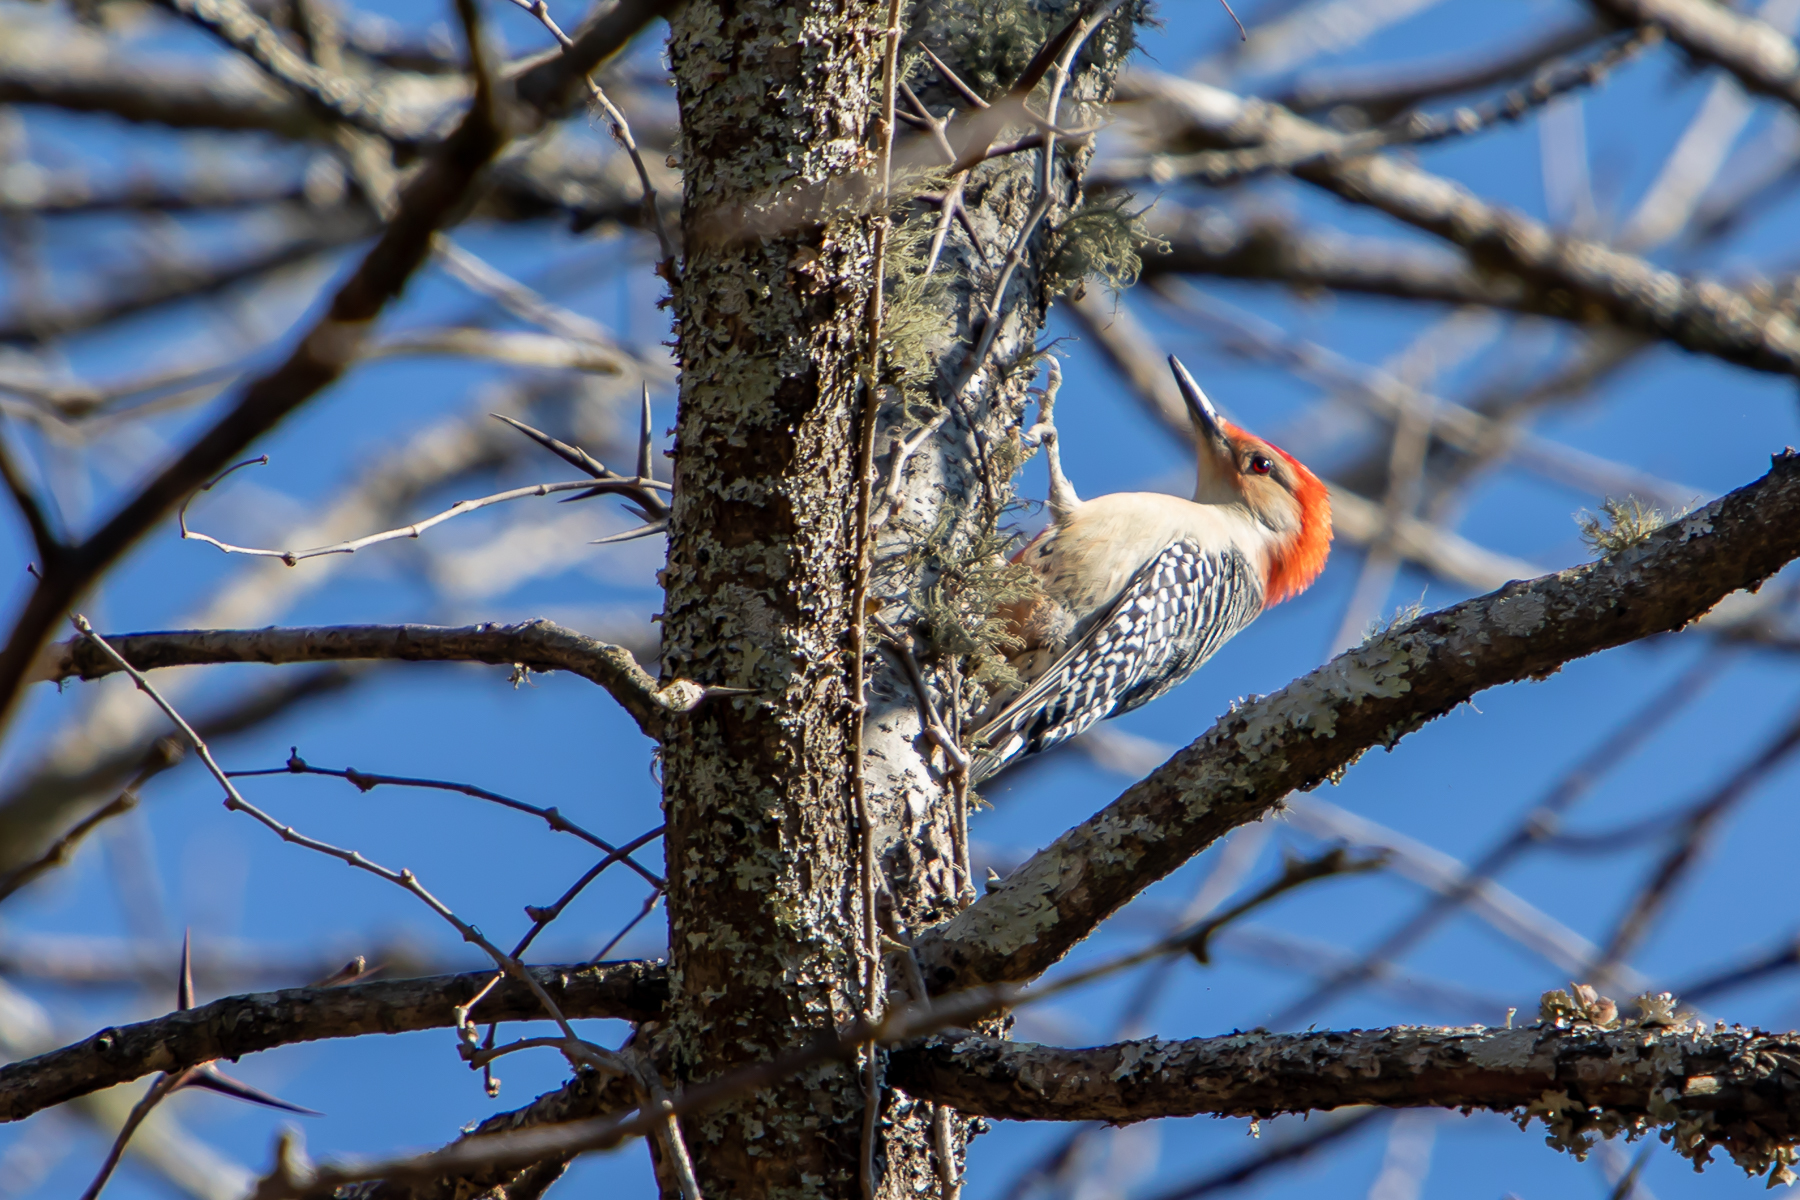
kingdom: Animalia
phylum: Chordata
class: Aves
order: Piciformes
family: Picidae
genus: Melanerpes
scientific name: Melanerpes carolinus
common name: Red-bellied woodpecker
